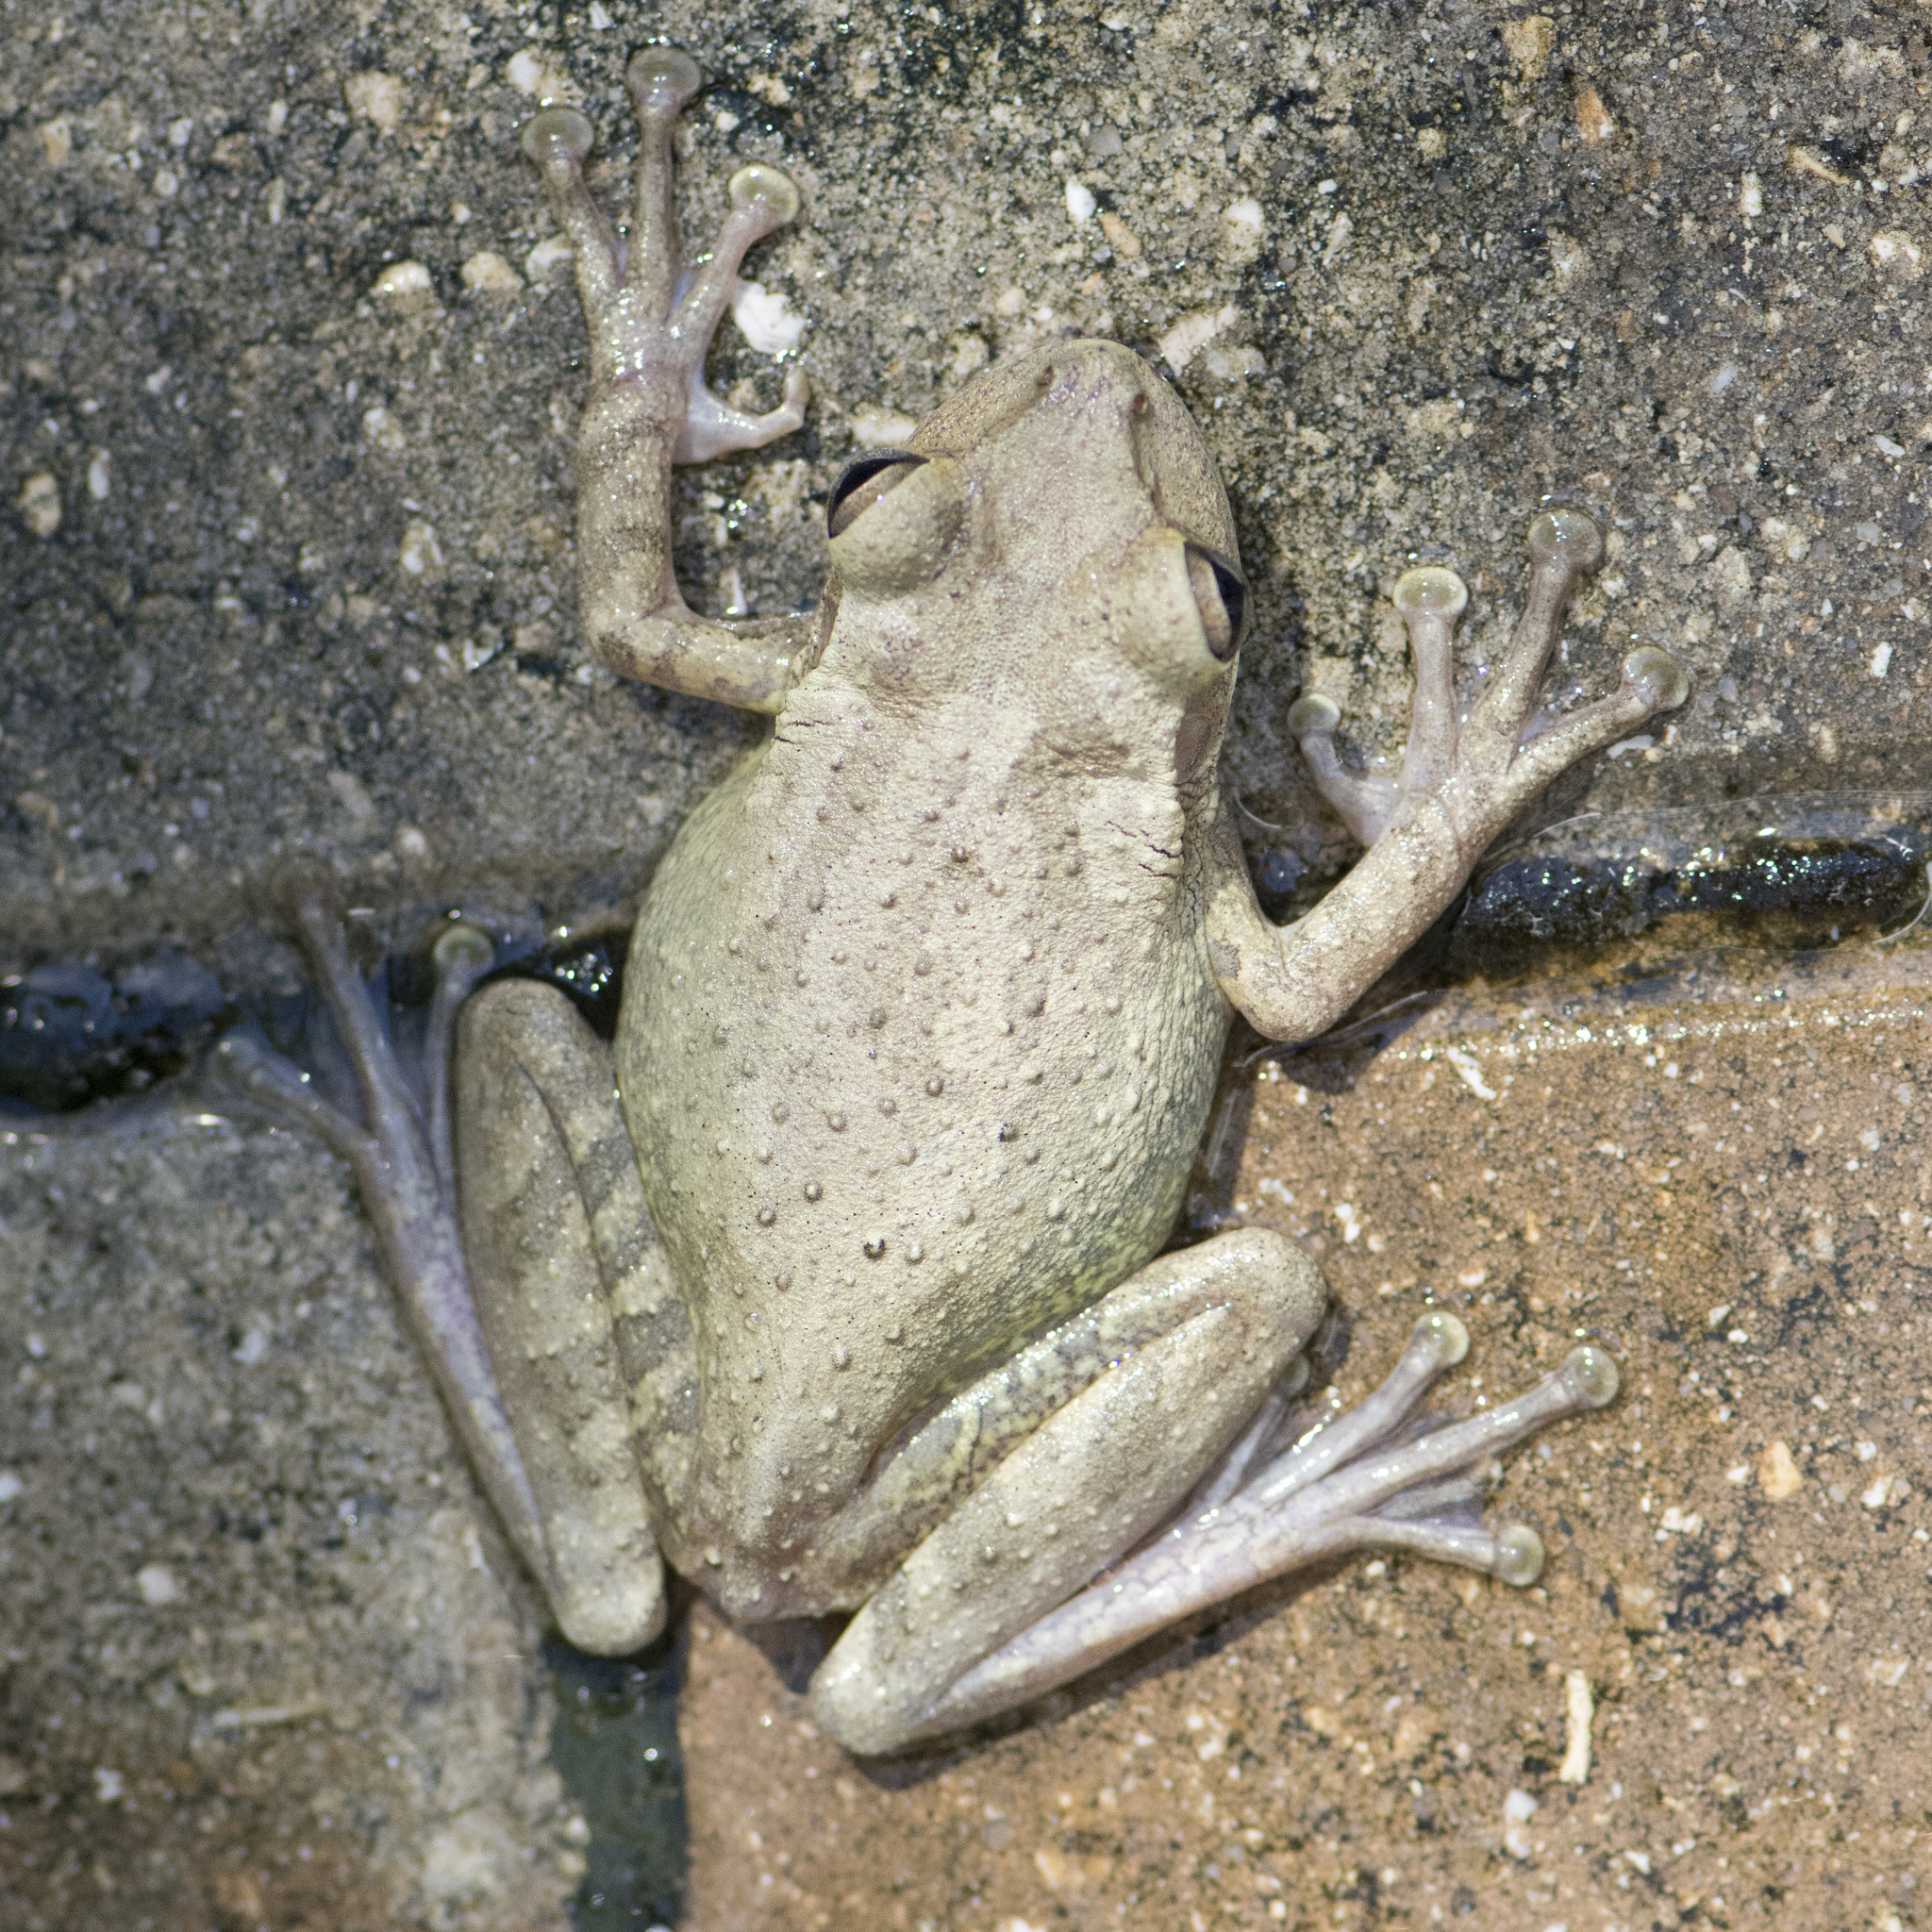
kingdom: Animalia
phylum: Chordata
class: Amphibia
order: Anura
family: Hylidae
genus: Osteopilus
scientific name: Osteopilus septentrionalis
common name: Cuban treefrog
